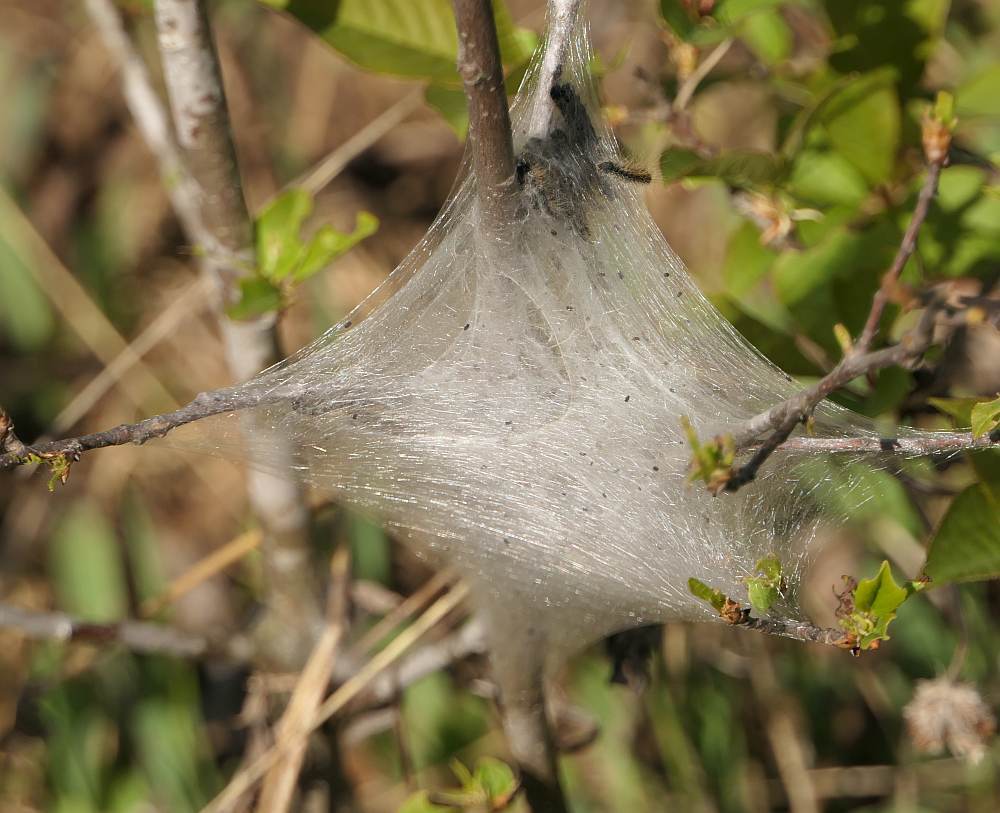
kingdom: Animalia
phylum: Arthropoda
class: Insecta
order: Lepidoptera
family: Lasiocampidae
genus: Malacosoma
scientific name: Malacosoma americana
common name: Eastern tent caterpillar moth
